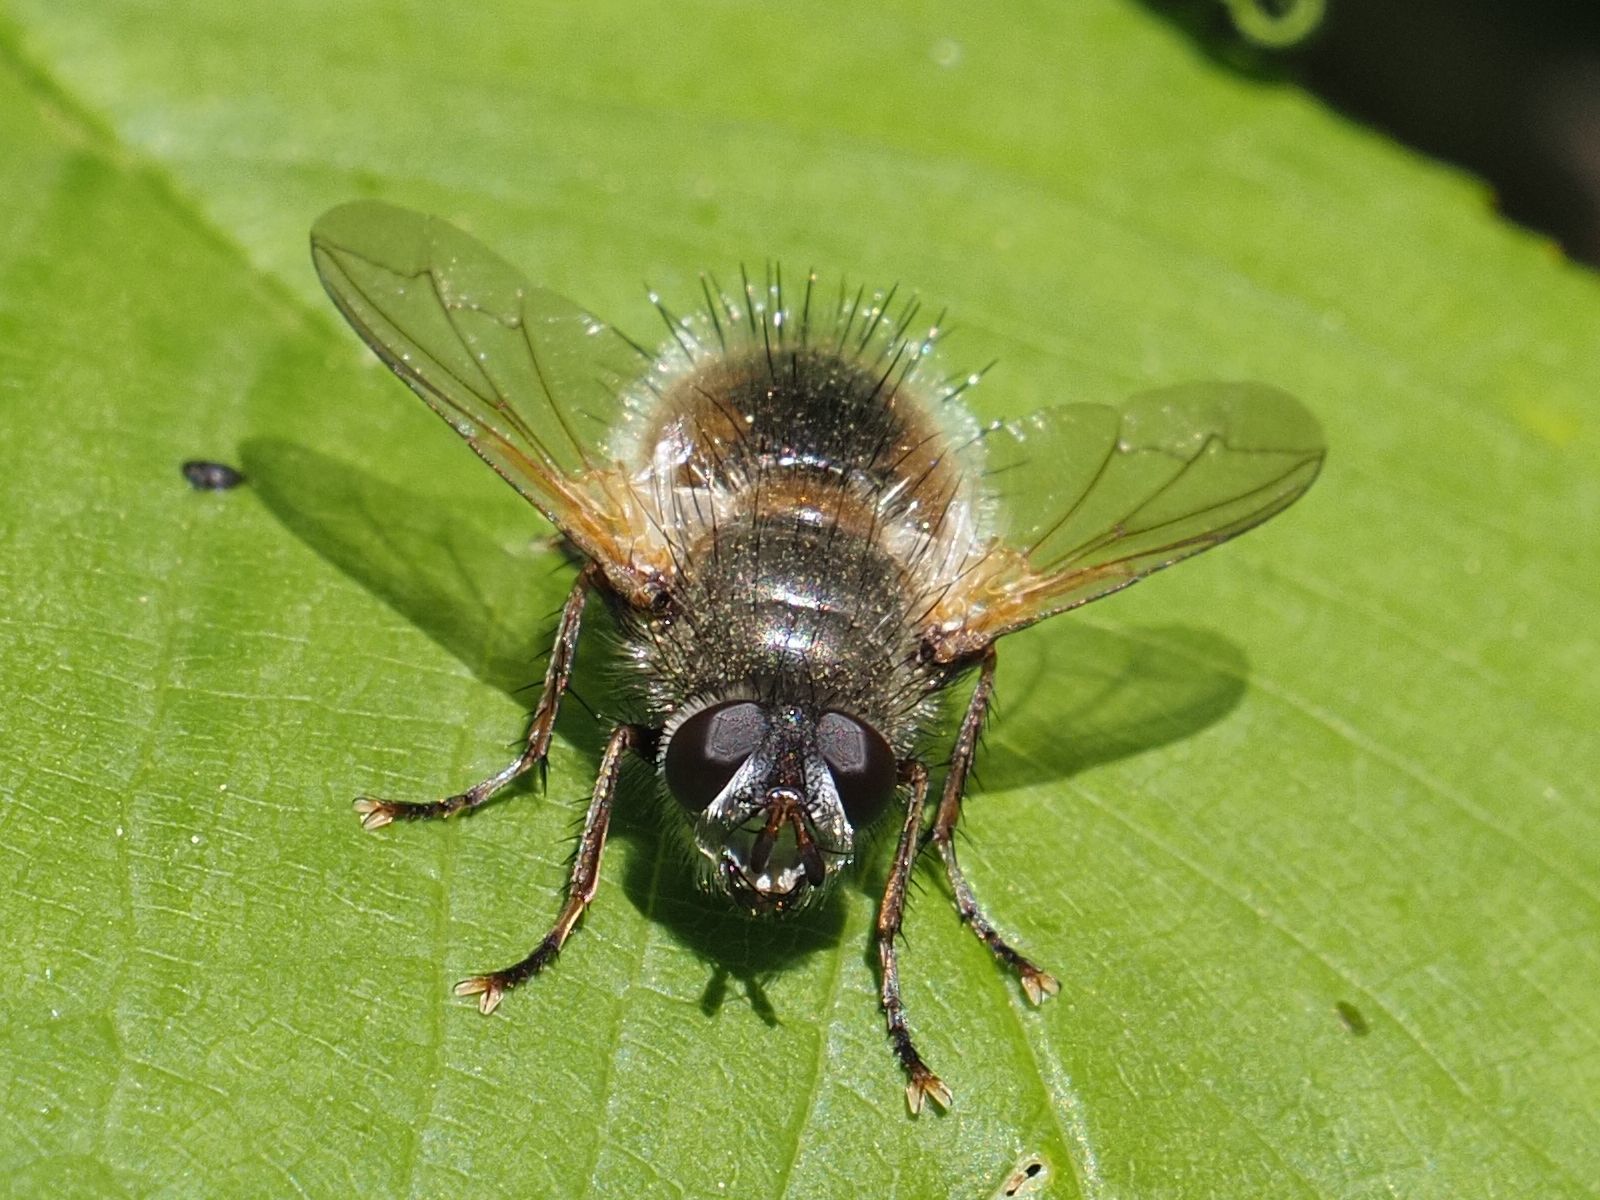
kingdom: Animalia
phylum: Arthropoda
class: Insecta
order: Diptera
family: Tachinidae
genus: Tachina
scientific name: Tachina lurida
